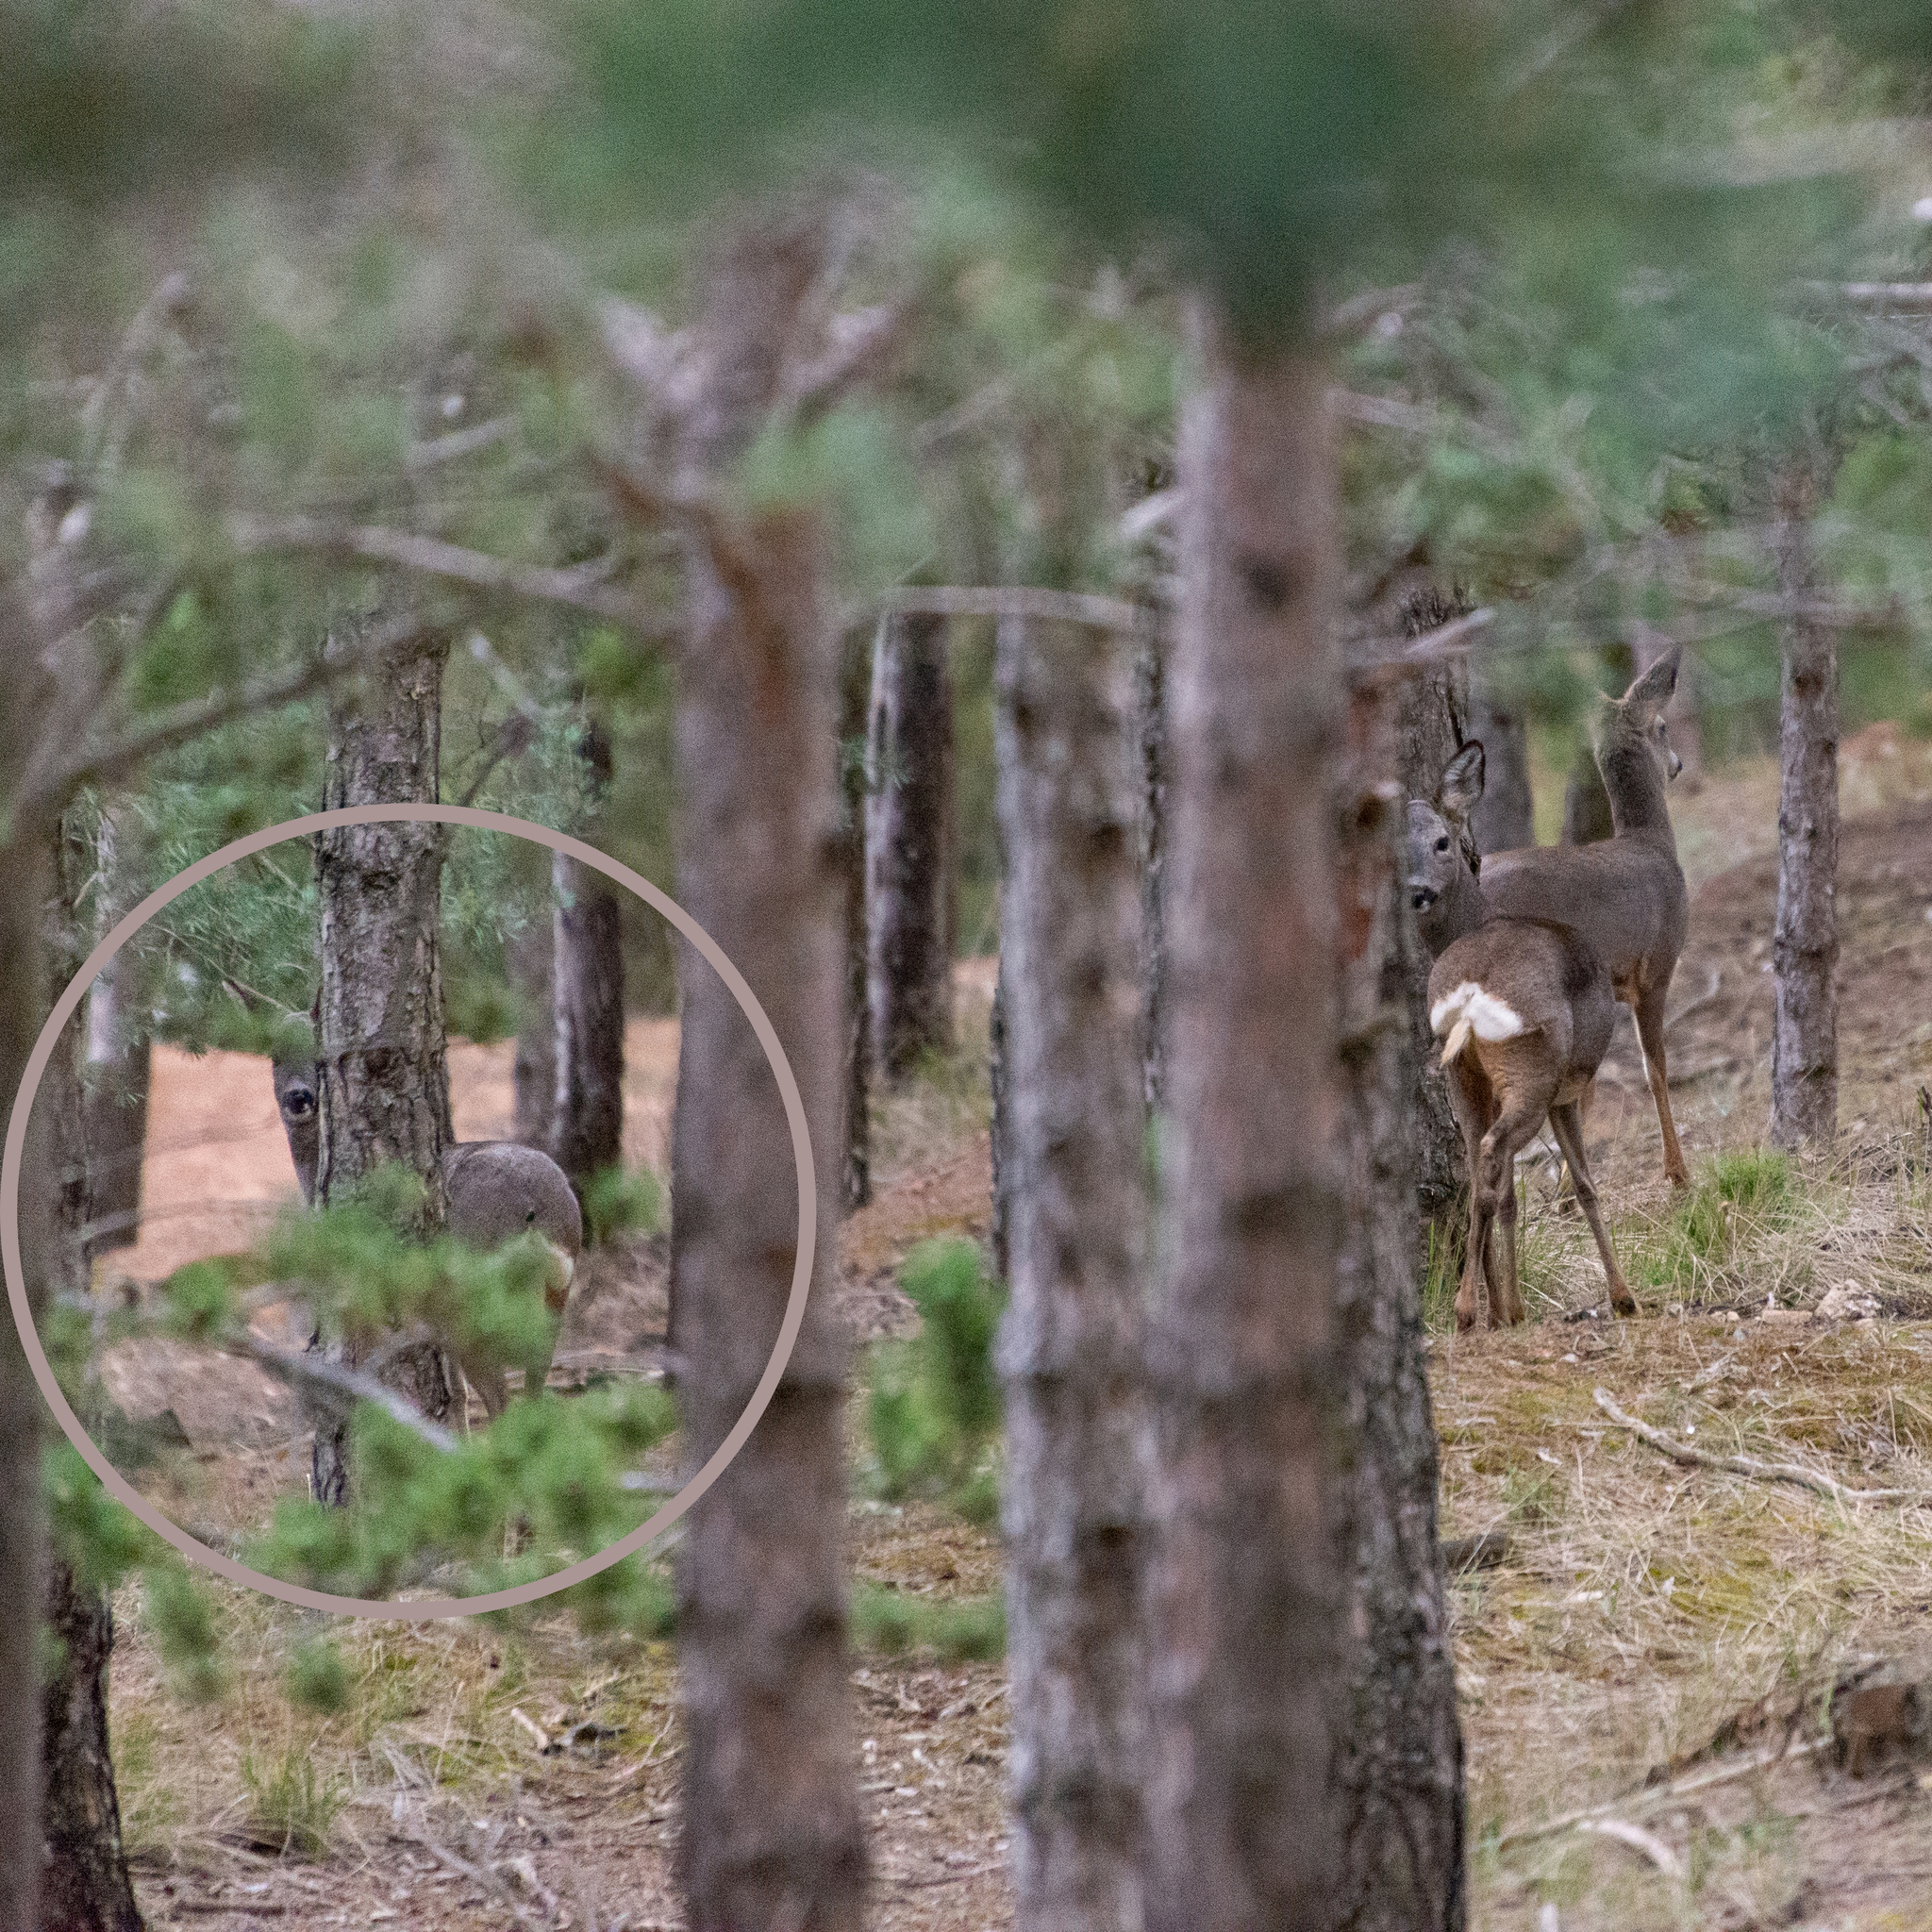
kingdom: Animalia
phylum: Chordata
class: Mammalia
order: Artiodactyla
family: Cervidae
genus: Capreolus
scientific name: Capreolus capreolus
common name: Western roe deer
